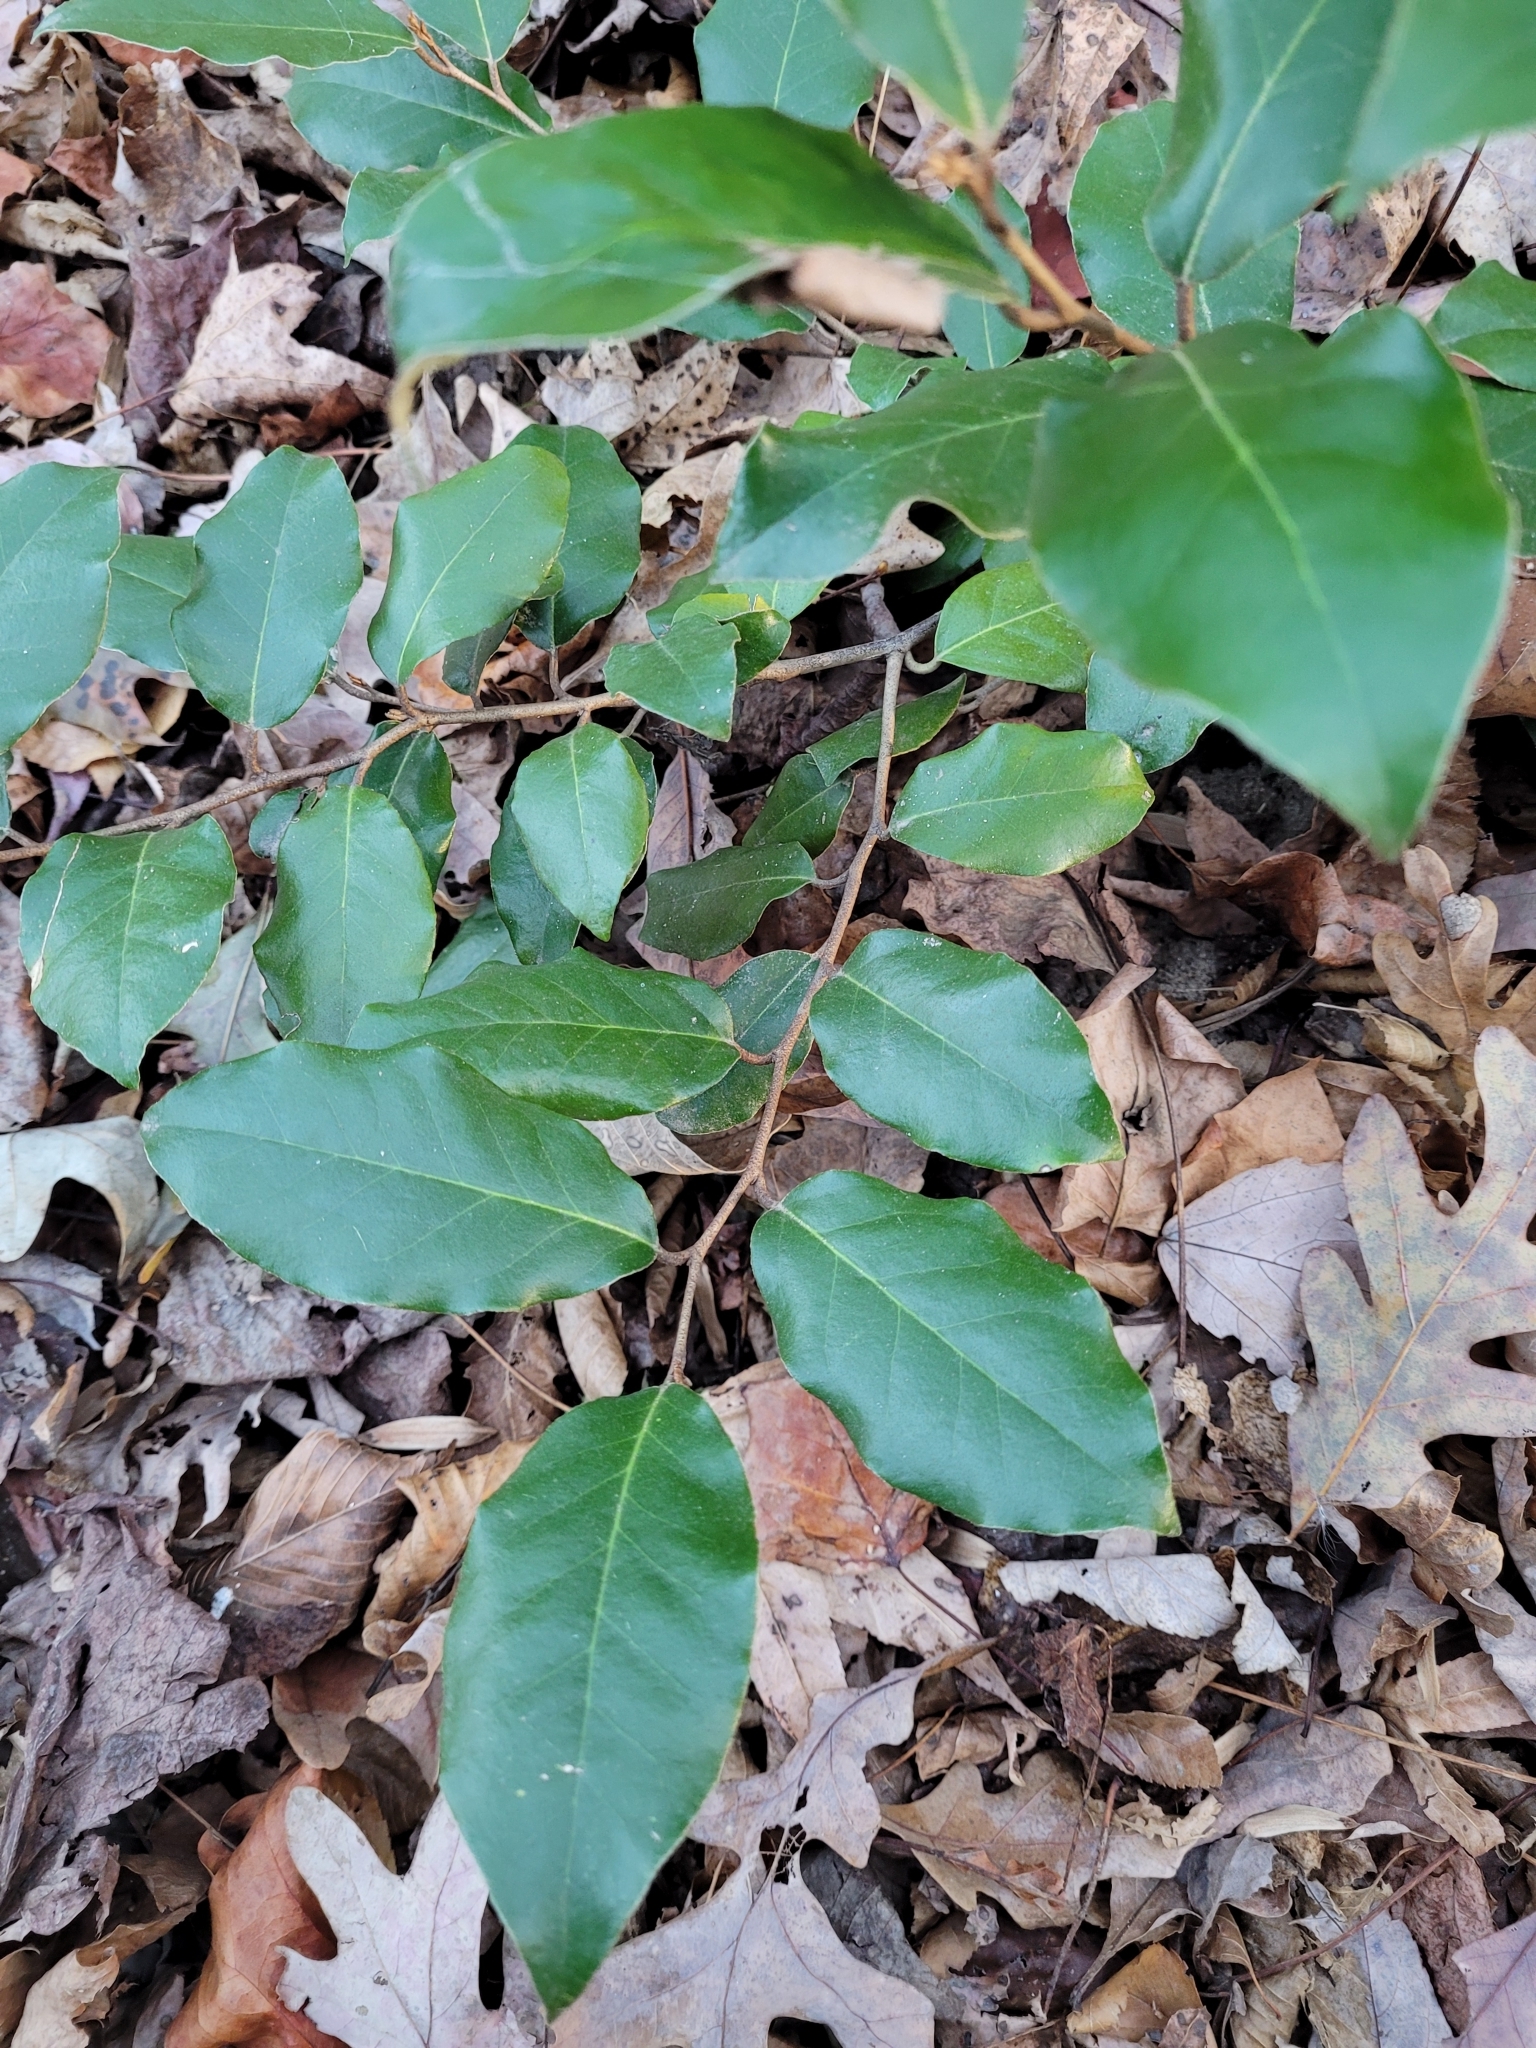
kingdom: Plantae
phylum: Tracheophyta
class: Magnoliopsida
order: Rosales
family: Elaeagnaceae
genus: Elaeagnus
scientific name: Elaeagnus pungens
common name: Spiny oleaster
